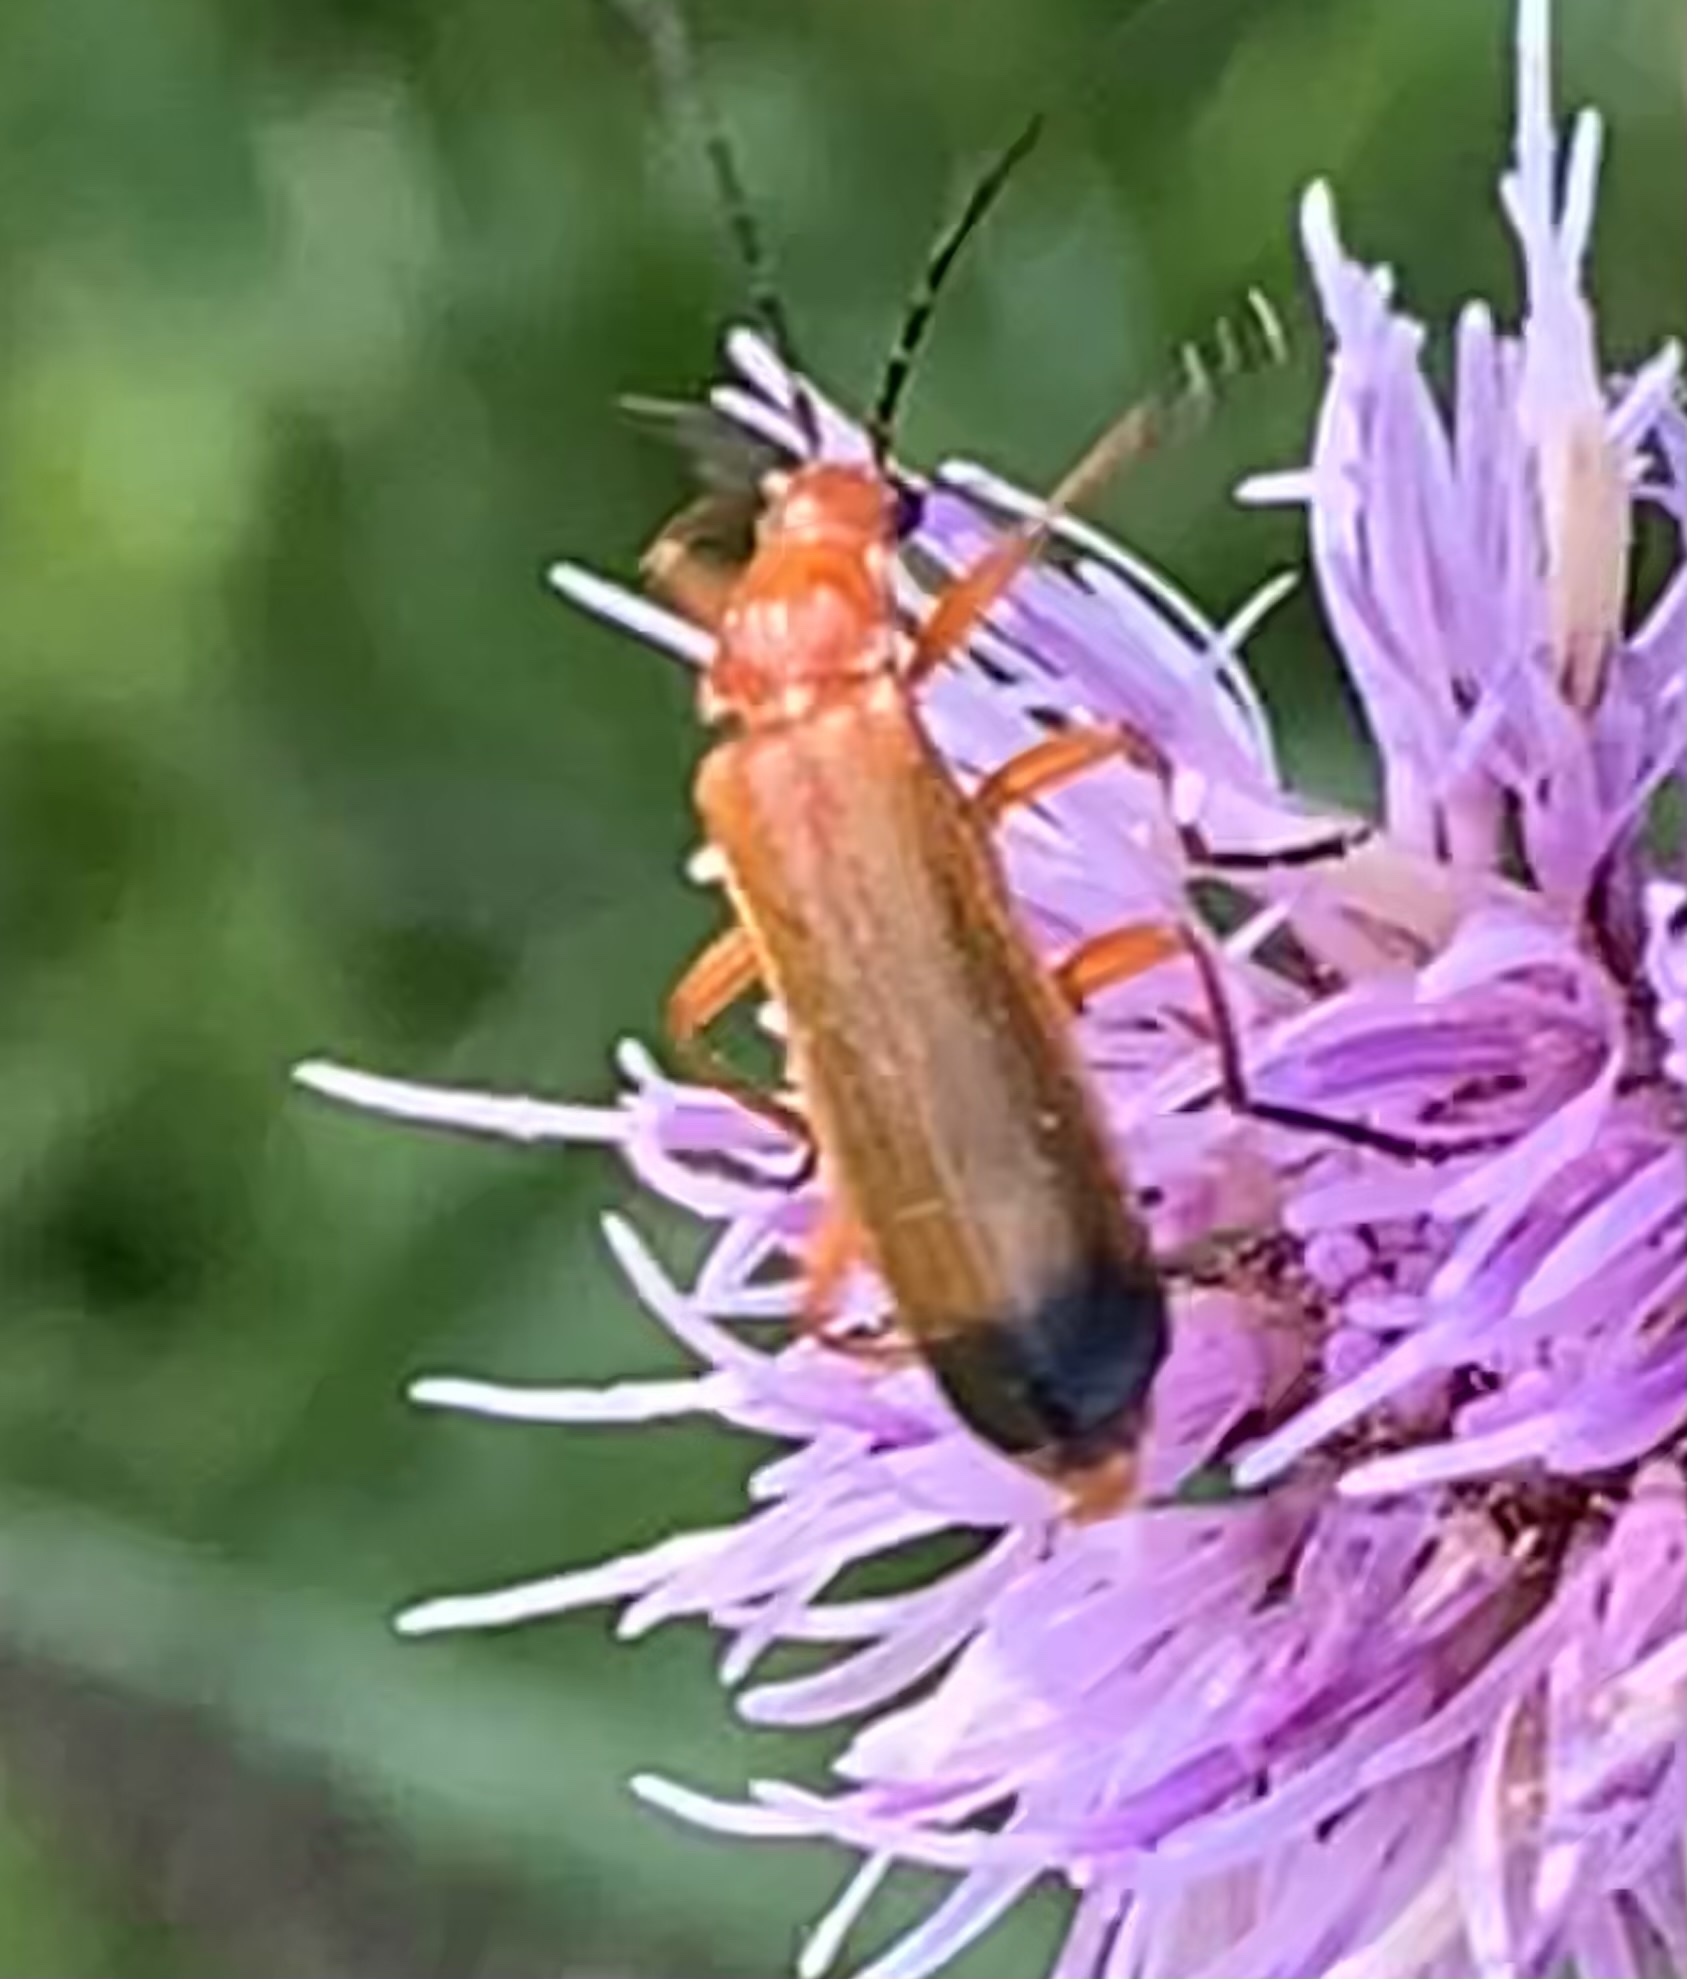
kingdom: Animalia
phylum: Arthropoda
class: Insecta
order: Coleoptera
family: Cantharidae
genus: Rhagonycha
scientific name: Rhagonycha fulva
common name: Common red soldier beetle
